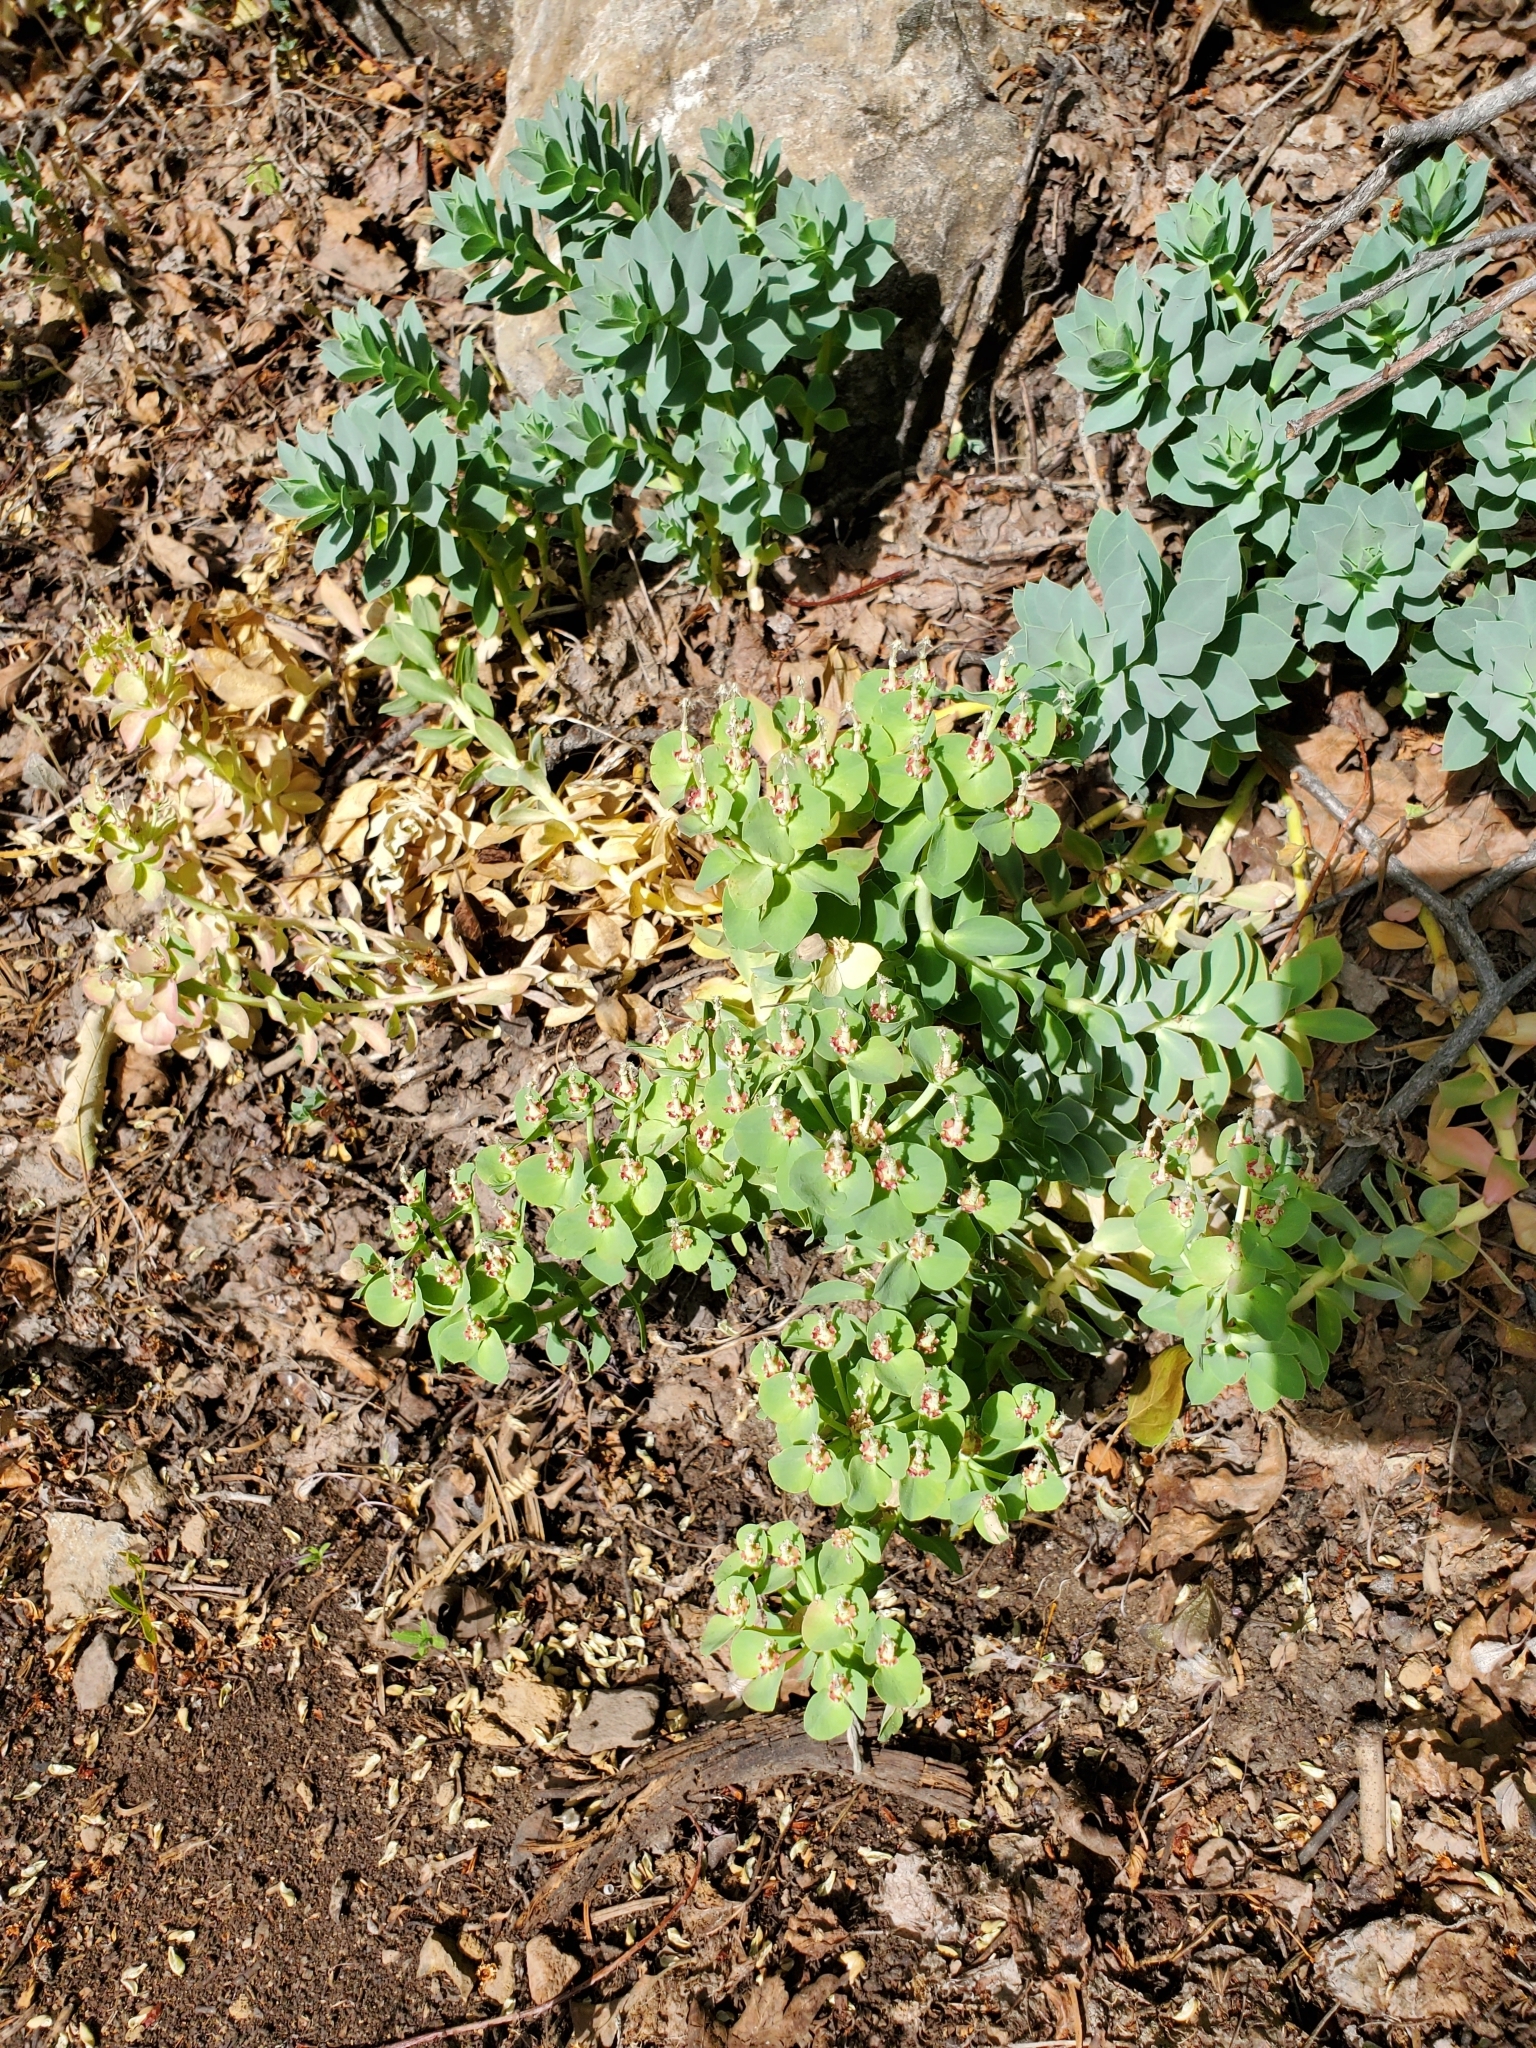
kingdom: Plantae
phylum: Tracheophyta
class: Magnoliopsida
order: Malpighiales
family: Euphorbiaceae
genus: Euphorbia
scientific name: Euphorbia myrsinites
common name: Myrtle spurge
